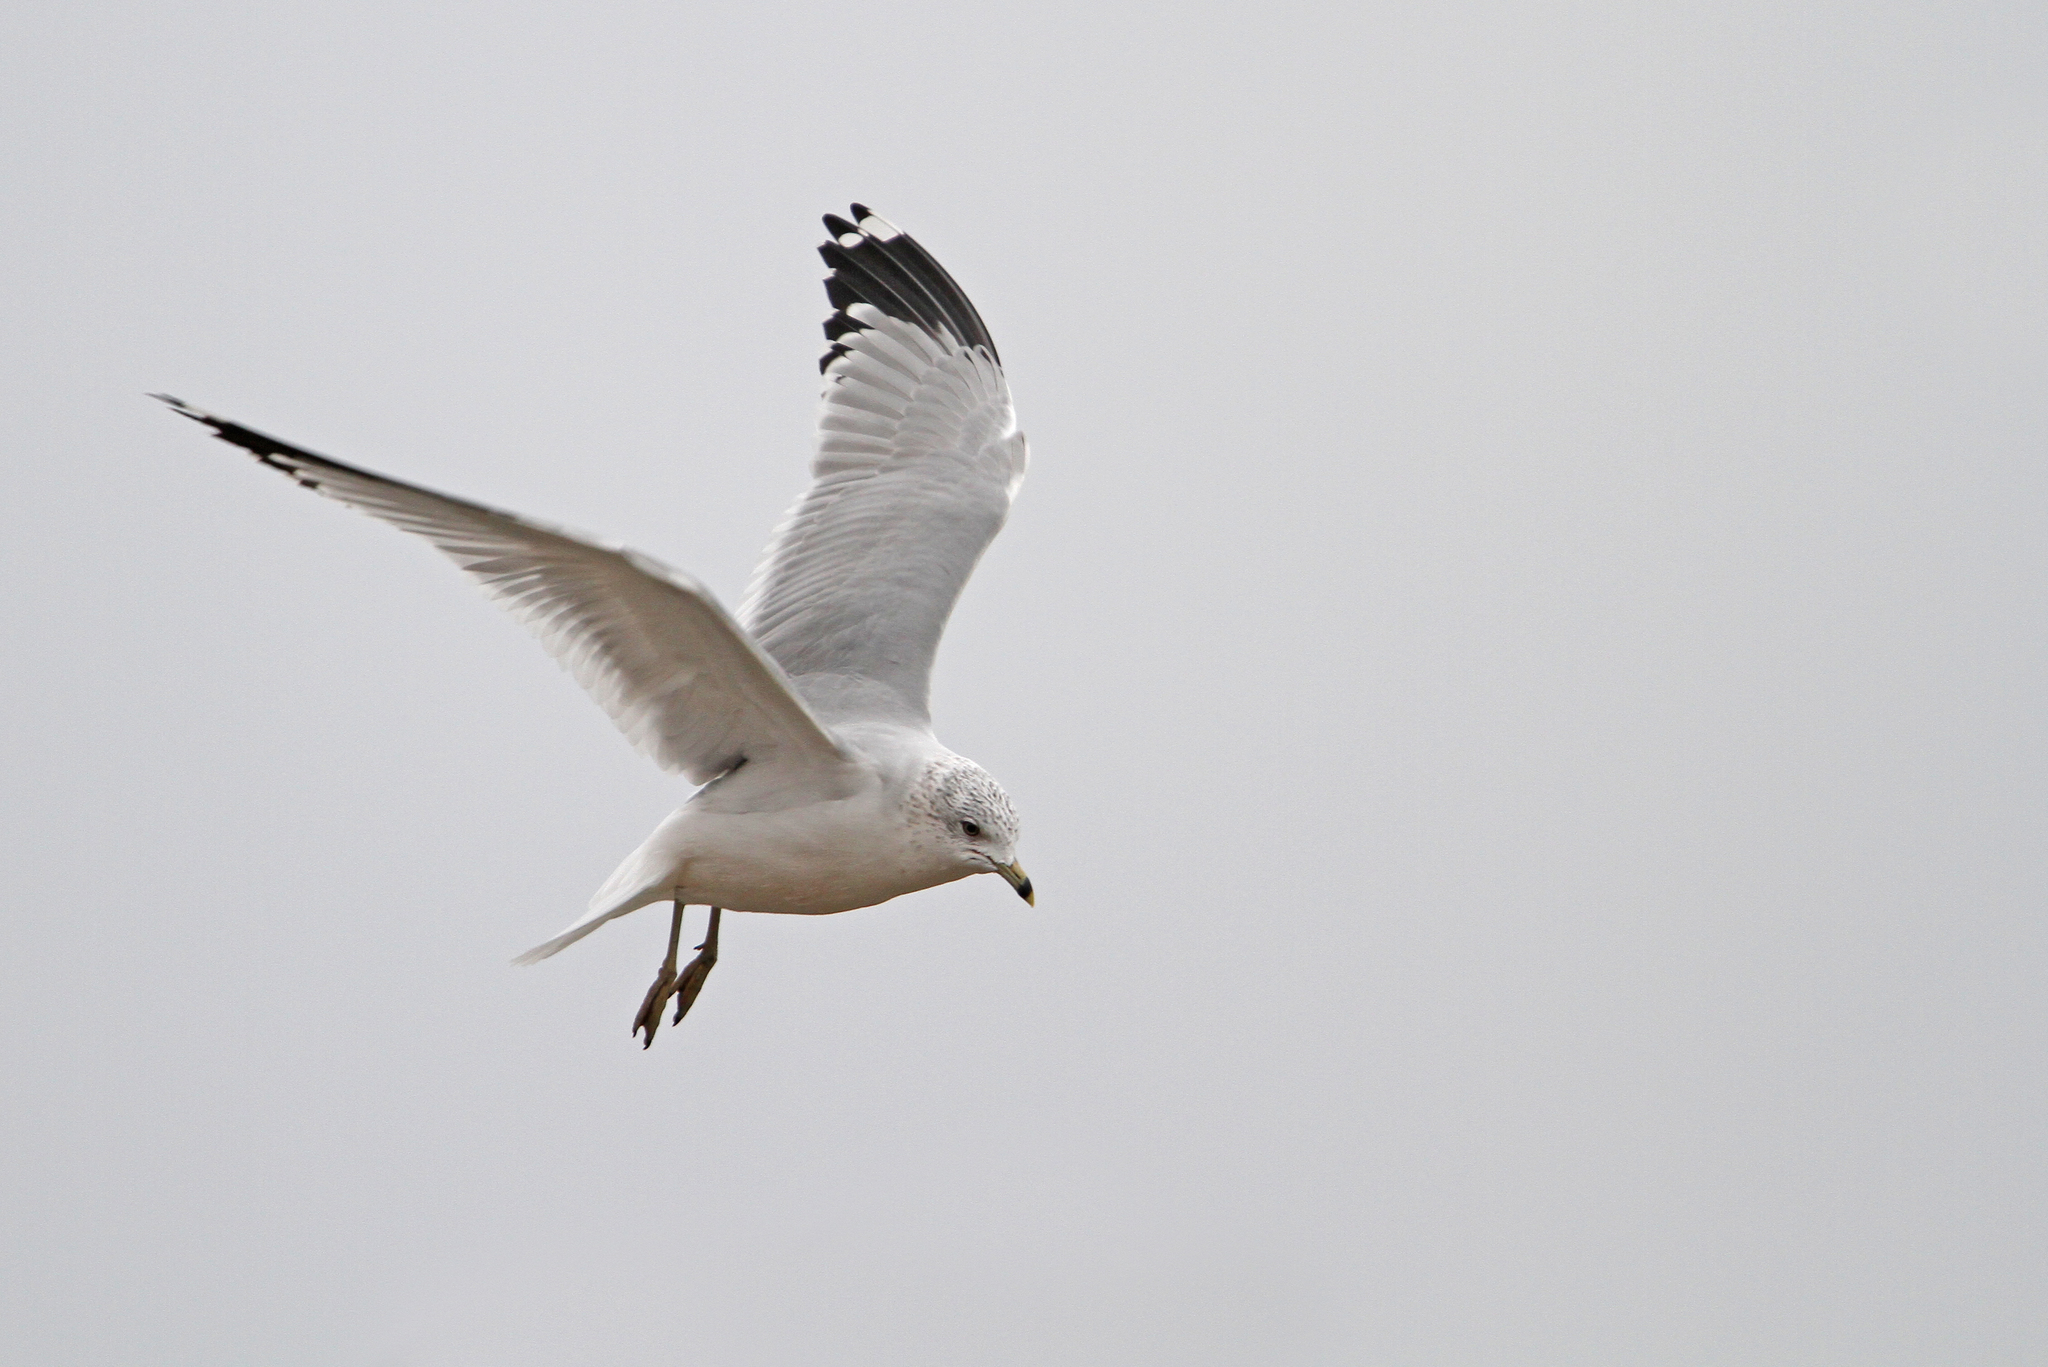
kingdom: Animalia
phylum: Chordata
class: Aves
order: Charadriiformes
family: Laridae
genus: Larus
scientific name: Larus delawarensis
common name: Ring-billed gull
